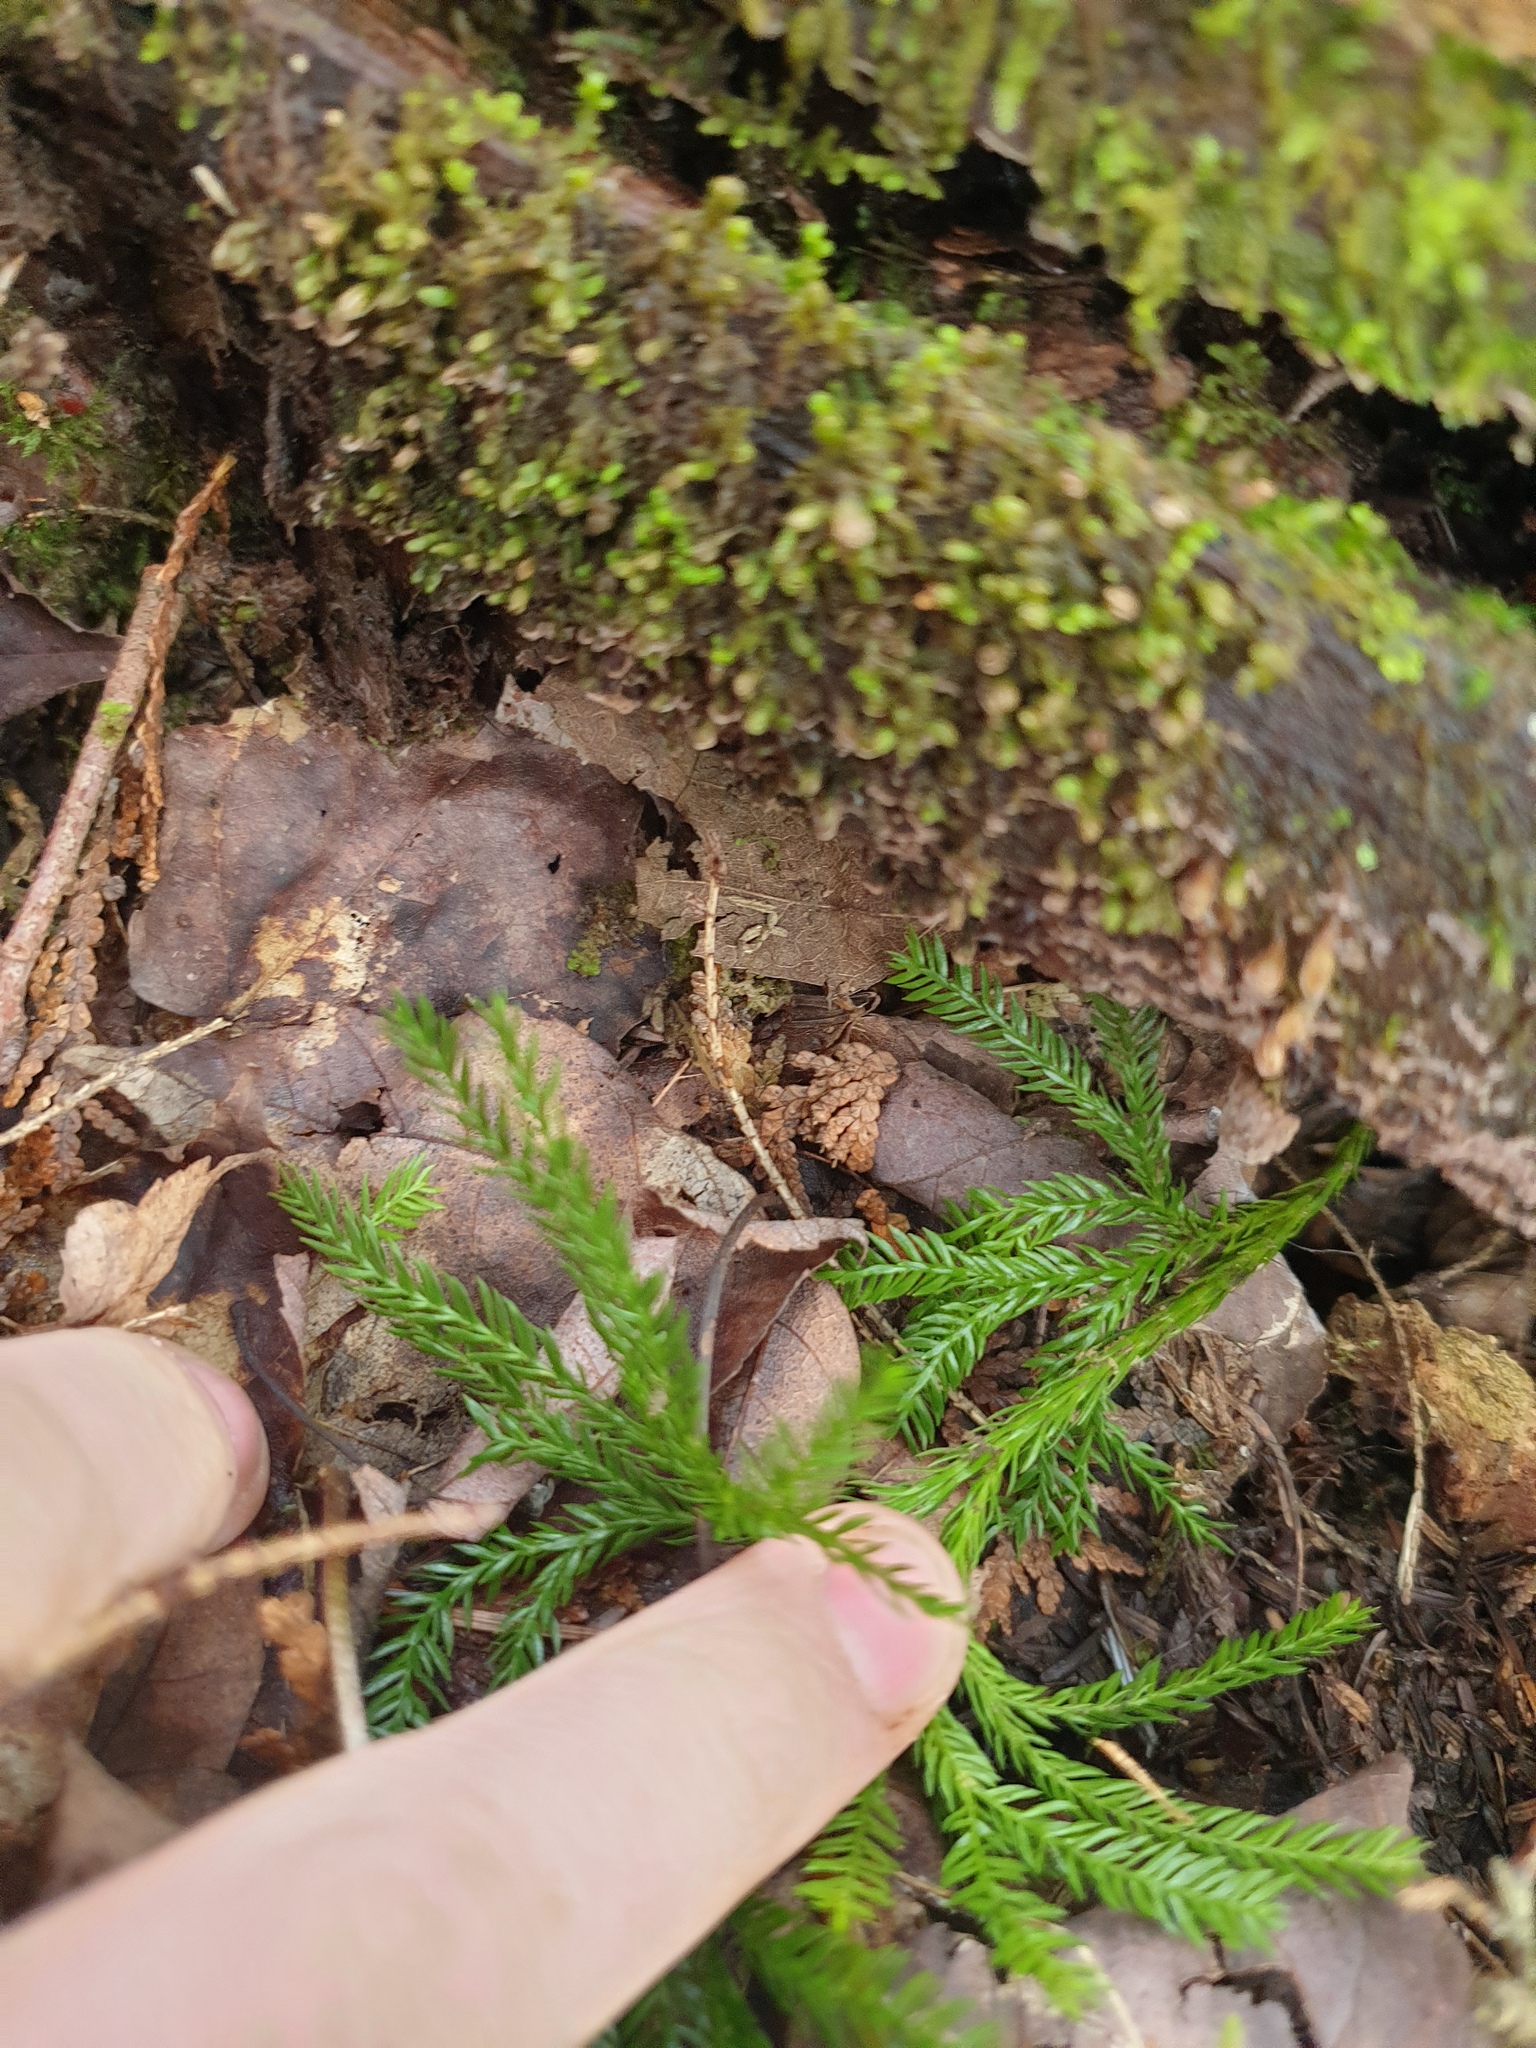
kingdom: Plantae
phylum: Tracheophyta
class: Lycopodiopsida
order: Lycopodiales
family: Lycopodiaceae
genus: Dendrolycopodium
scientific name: Dendrolycopodium obscurum
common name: Common ground-pine
